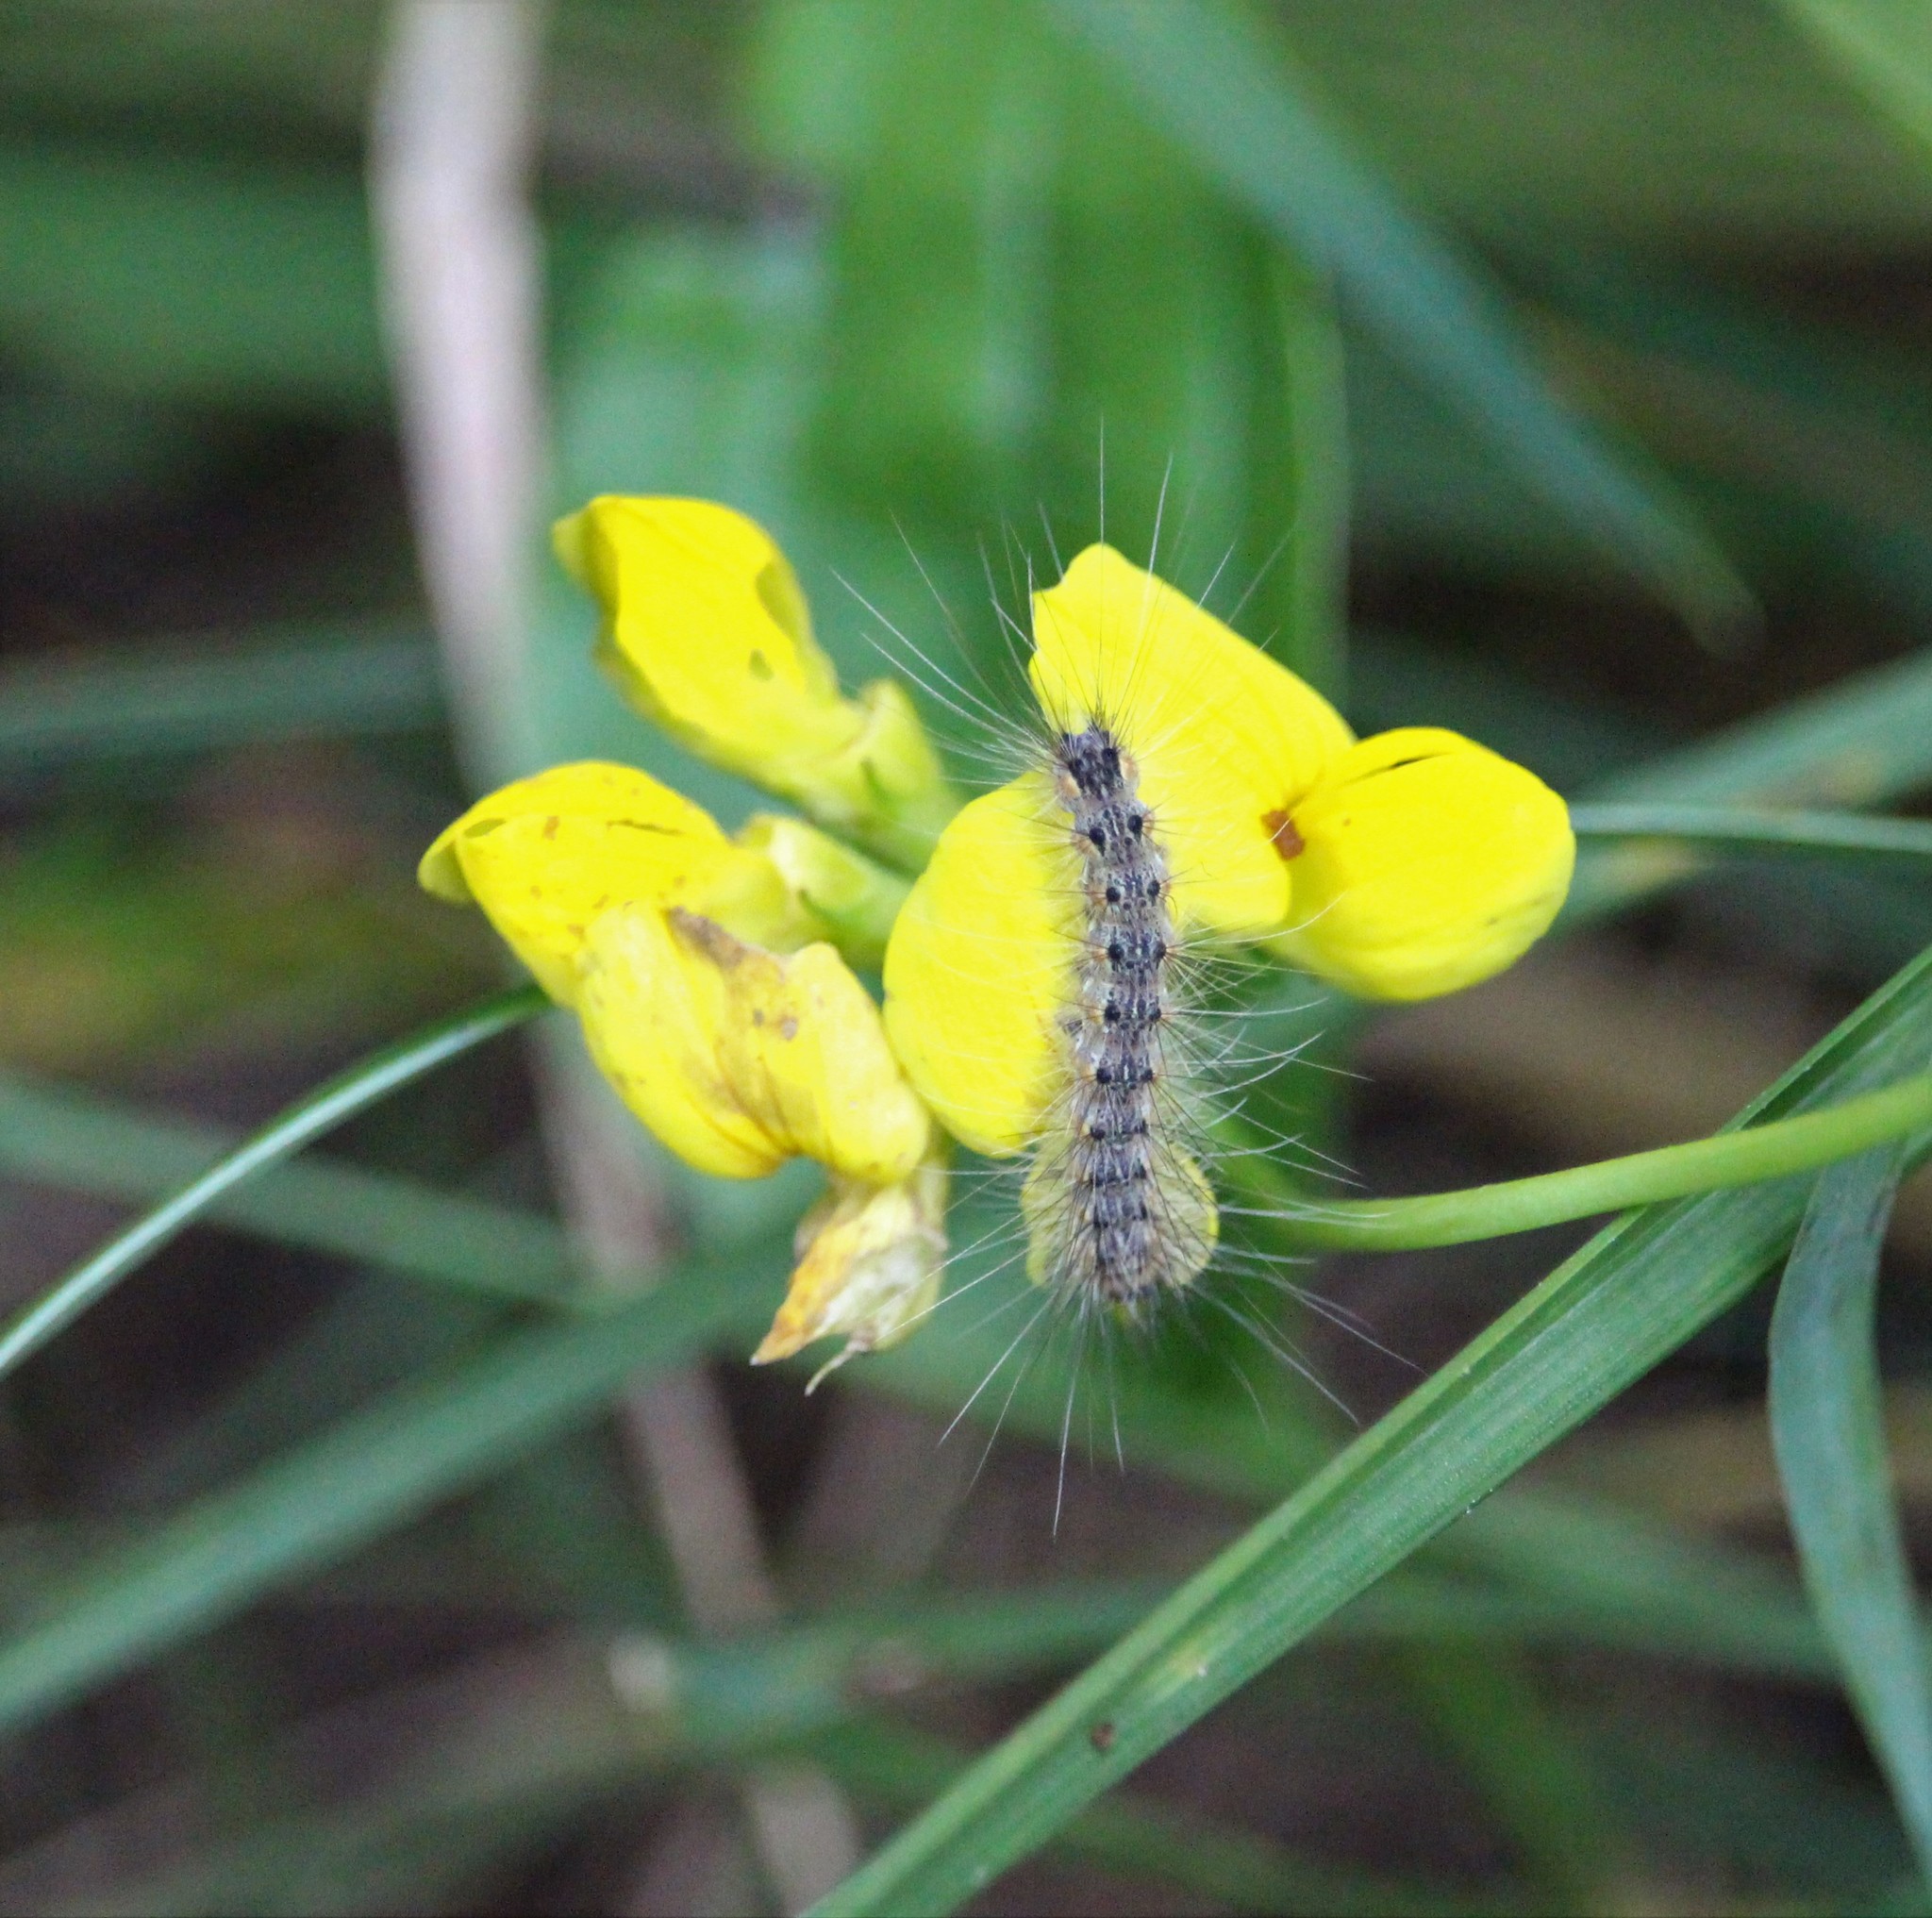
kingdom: Animalia
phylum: Arthropoda
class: Insecta
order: Lepidoptera
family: Erebidae
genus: Hyphantria
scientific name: Hyphantria cunea
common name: American white moth
